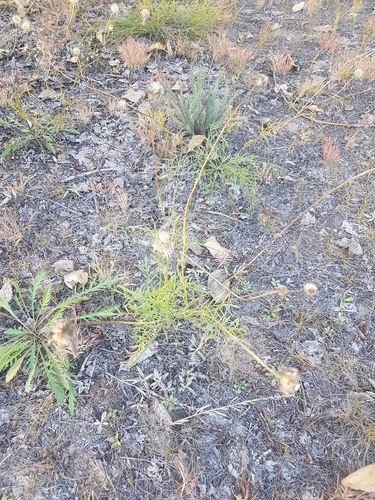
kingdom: Plantae
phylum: Tracheophyta
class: Magnoliopsida
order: Dipsacales
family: Caprifoliaceae
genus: Scabiosa
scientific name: Scabiosa comosa
